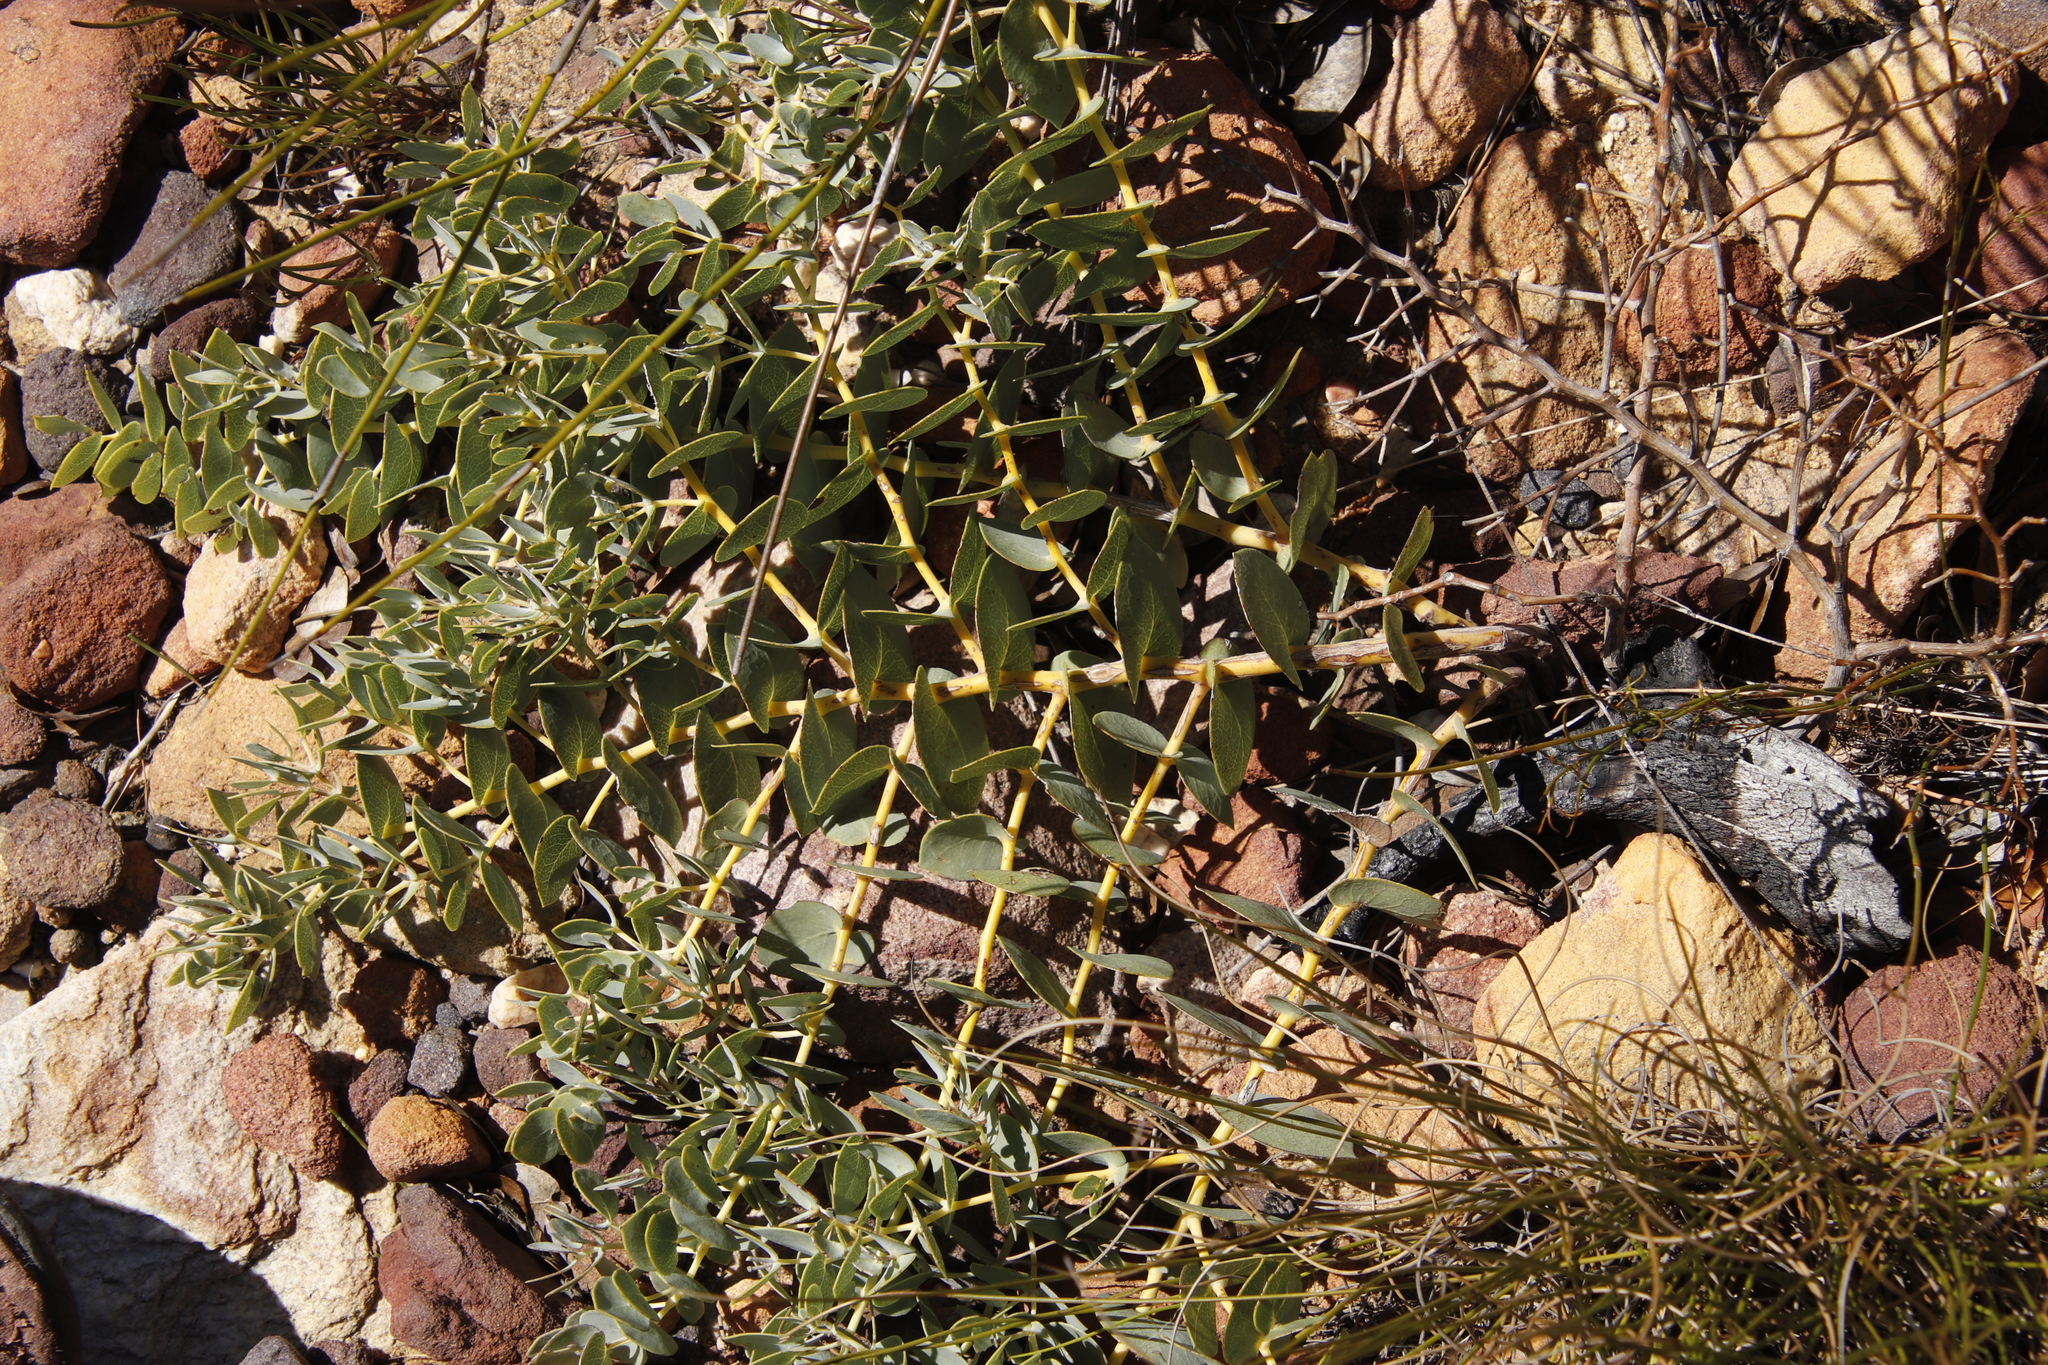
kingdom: Plantae
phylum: Tracheophyta
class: Magnoliopsida
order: Proteales
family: Proteaceae
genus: Leucospermum
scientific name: Leucospermum cordatum
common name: Heart-leaf pincushion
